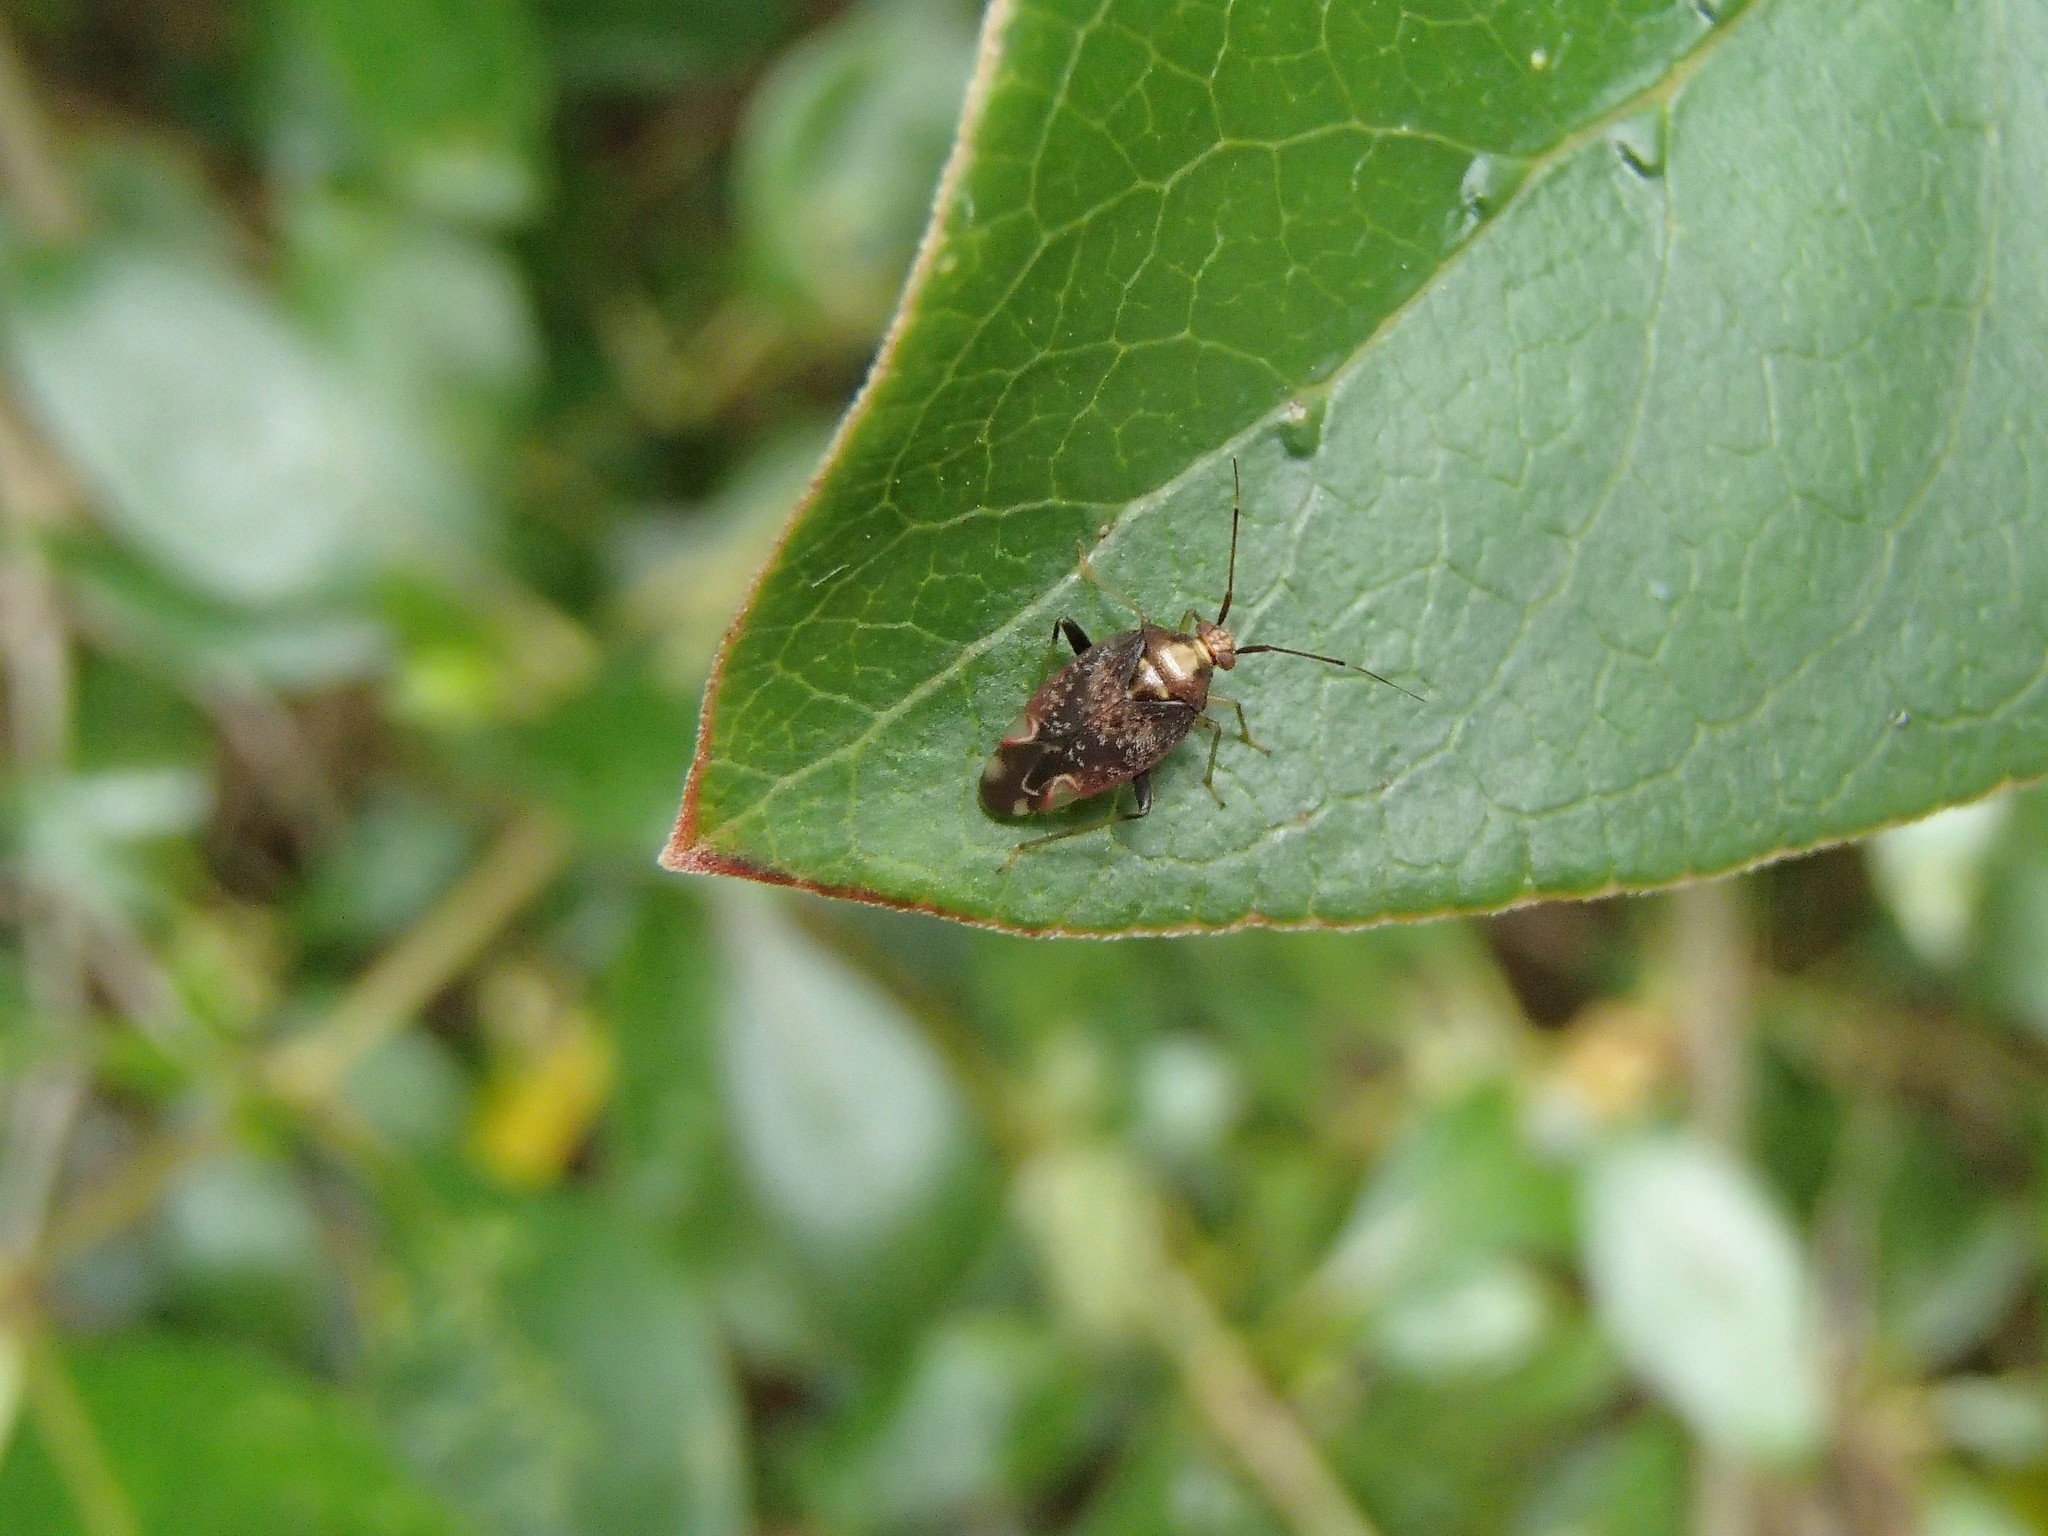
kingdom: Animalia
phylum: Arthropoda
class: Insecta
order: Hemiptera
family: Miridae
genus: Chinamiris
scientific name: Chinamiris indeclivis
